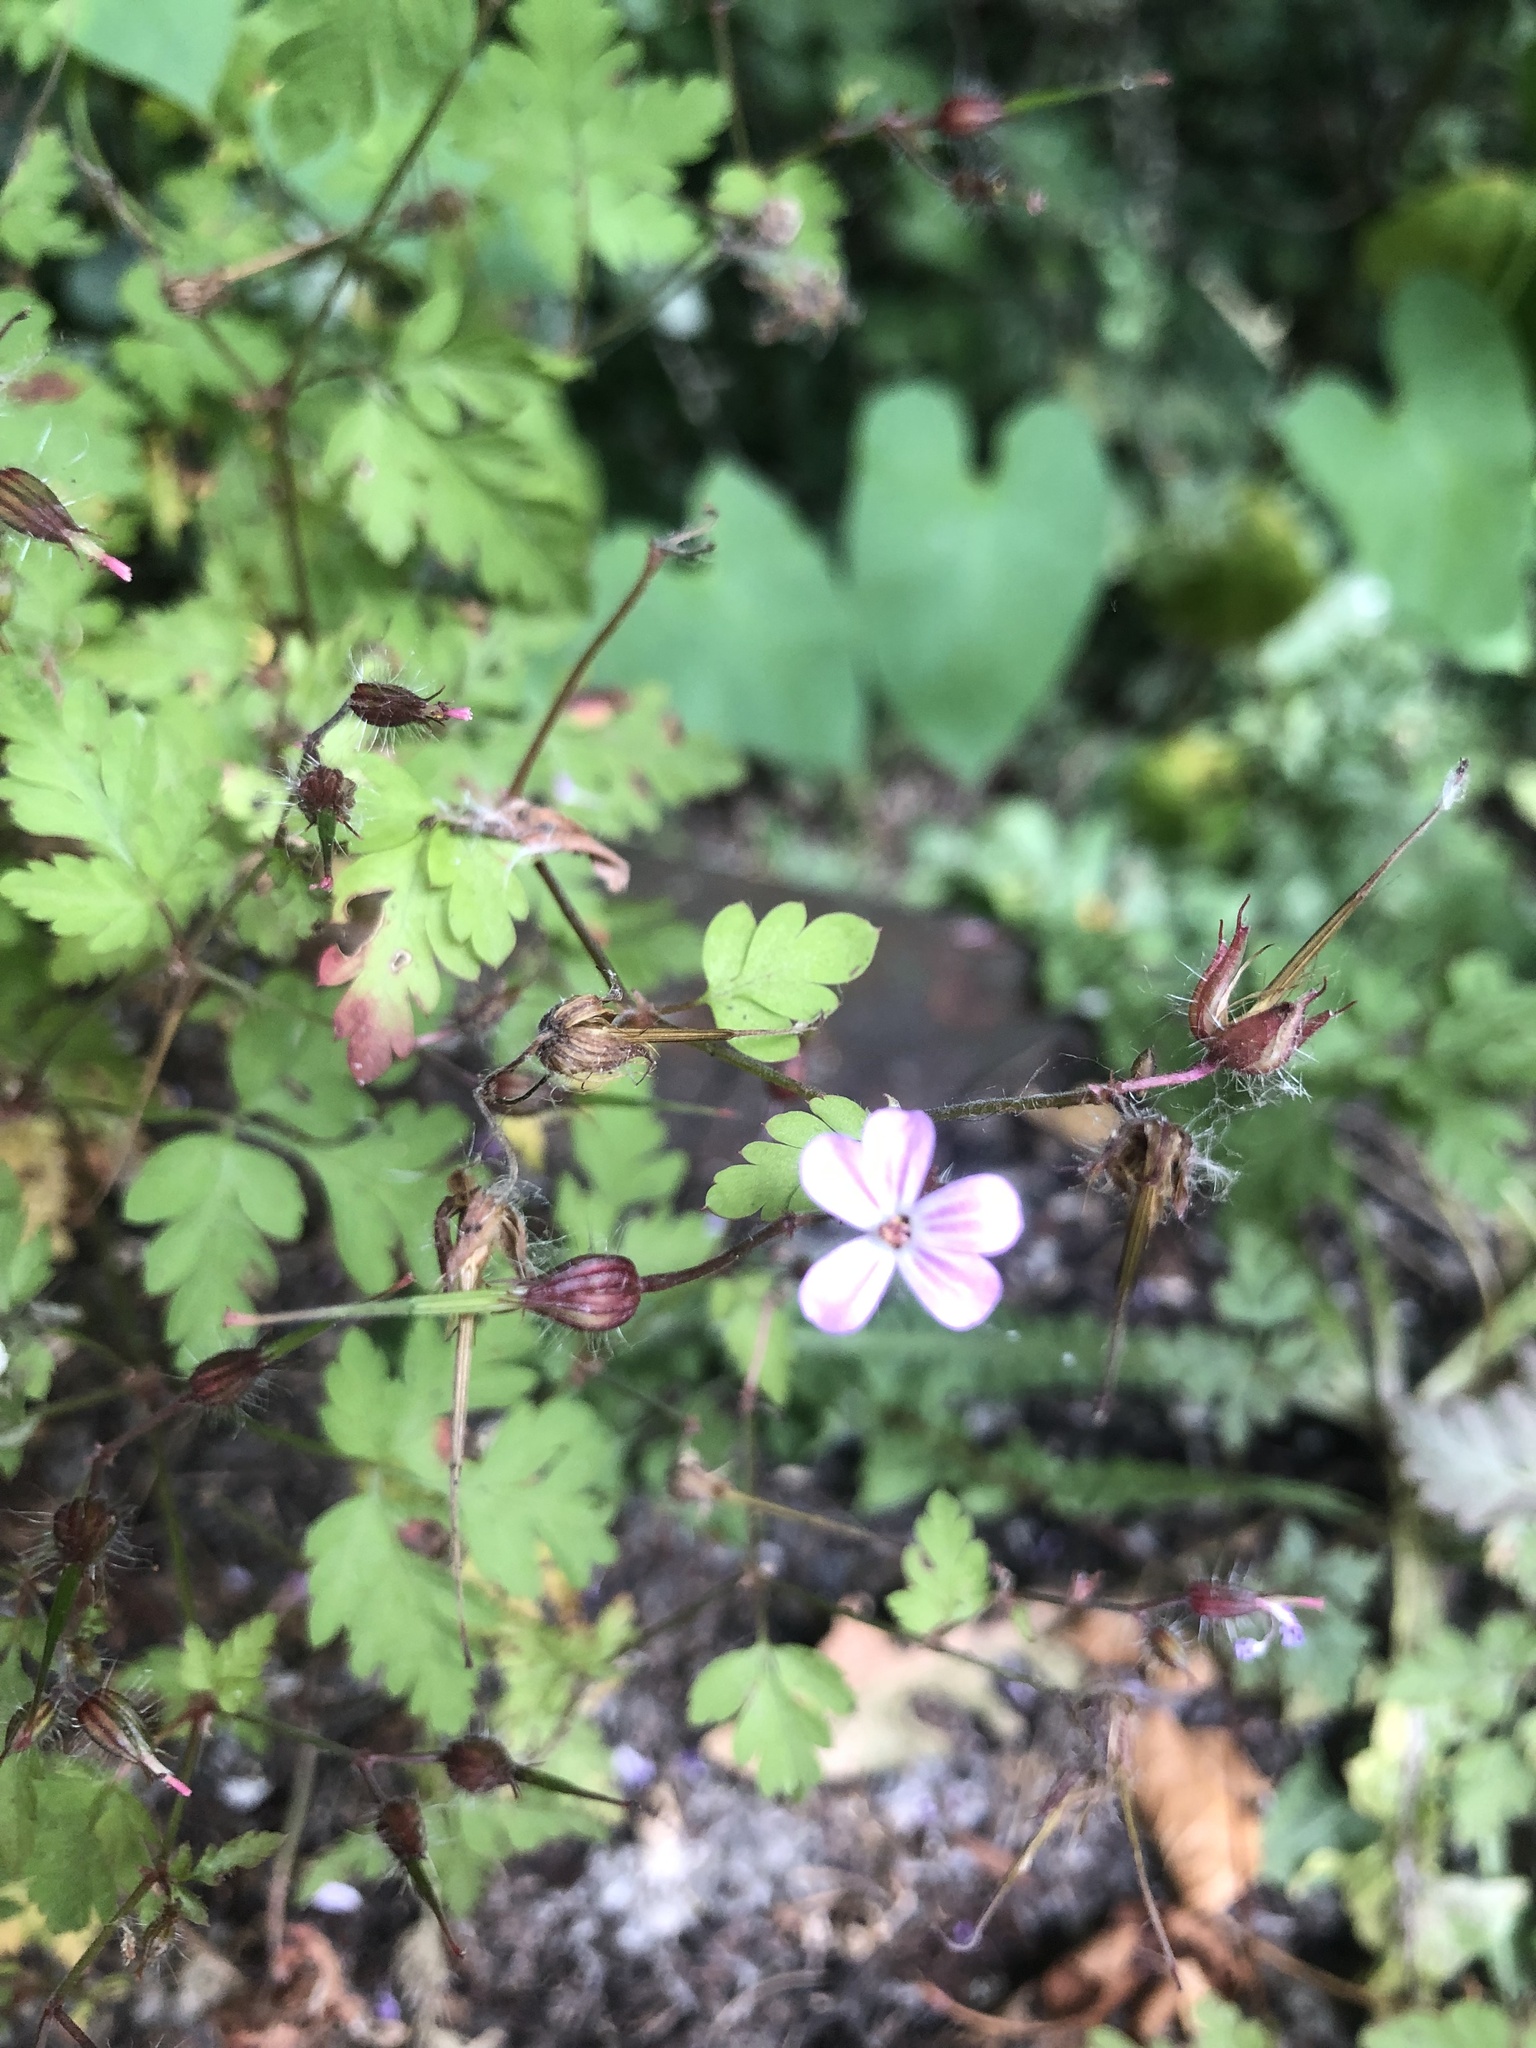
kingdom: Plantae
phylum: Tracheophyta
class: Magnoliopsida
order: Geraniales
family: Geraniaceae
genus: Geranium
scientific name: Geranium robertianum
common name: Herb-robert
